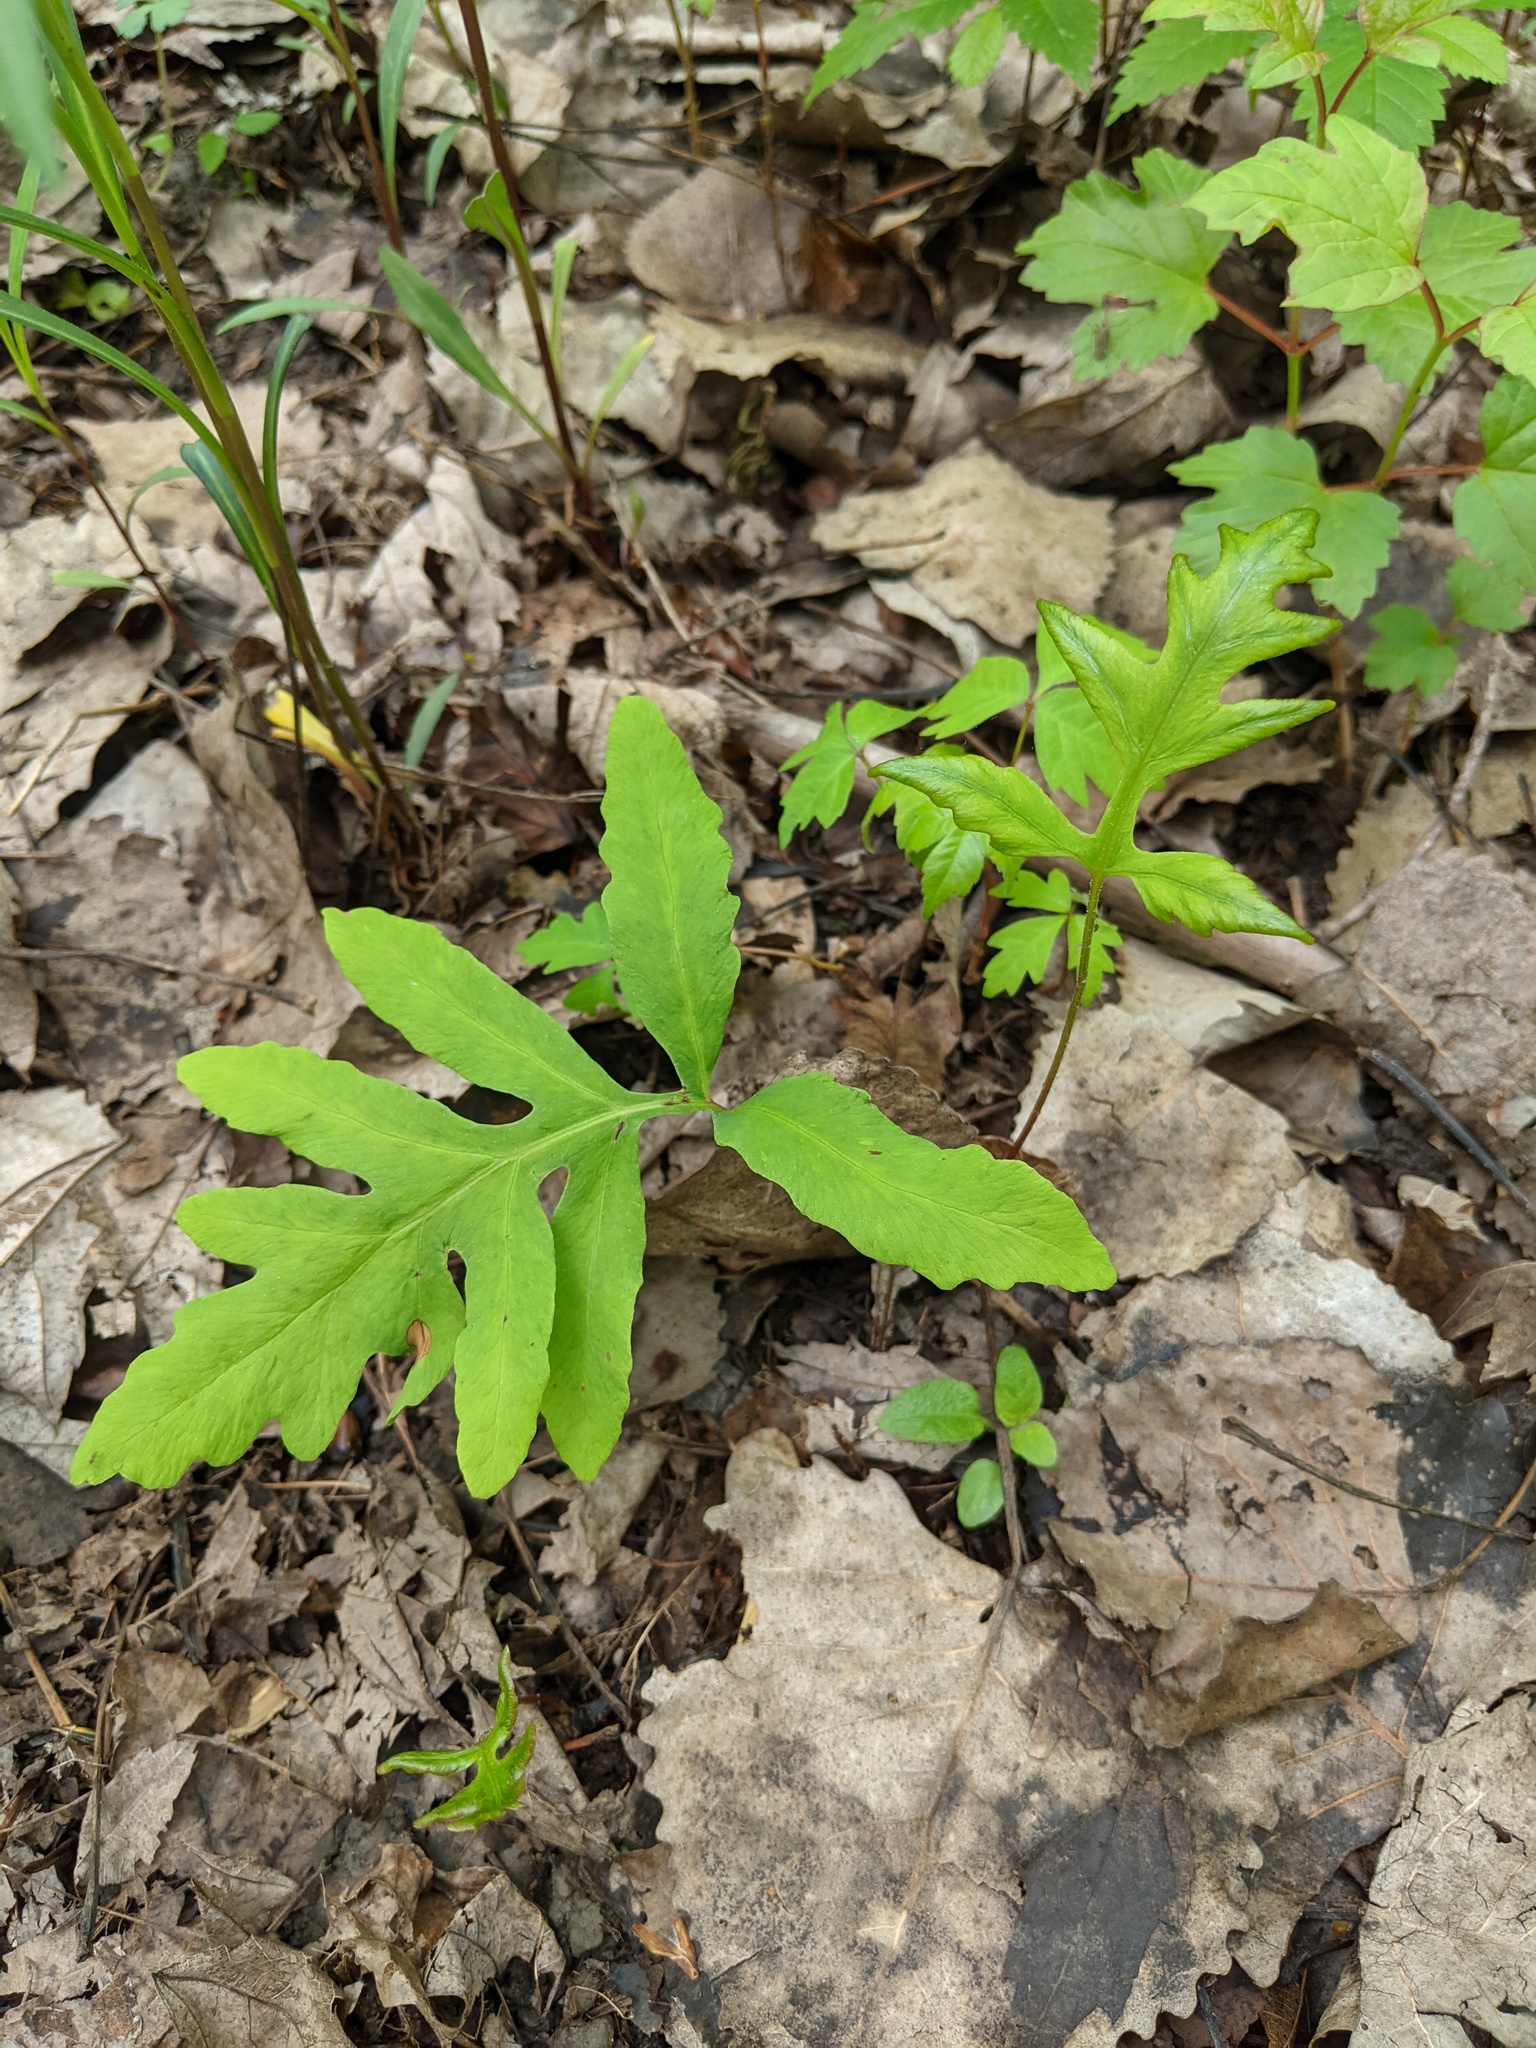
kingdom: Plantae
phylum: Tracheophyta
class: Polypodiopsida
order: Polypodiales
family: Onocleaceae
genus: Onoclea
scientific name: Onoclea sensibilis
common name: Sensitive fern
